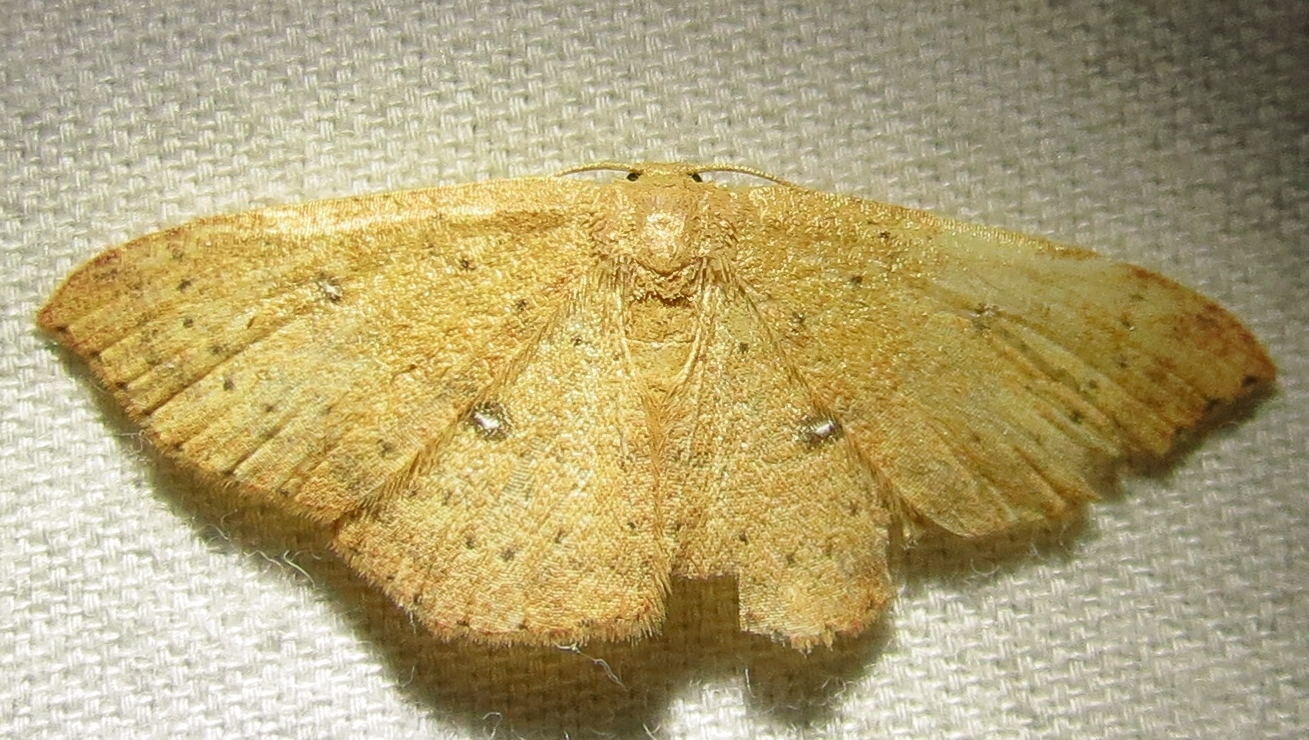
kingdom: Animalia
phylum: Arthropoda
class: Insecta
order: Lepidoptera
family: Geometridae
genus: Cyclophora
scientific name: Cyclophora packardi
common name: Packard's wave
